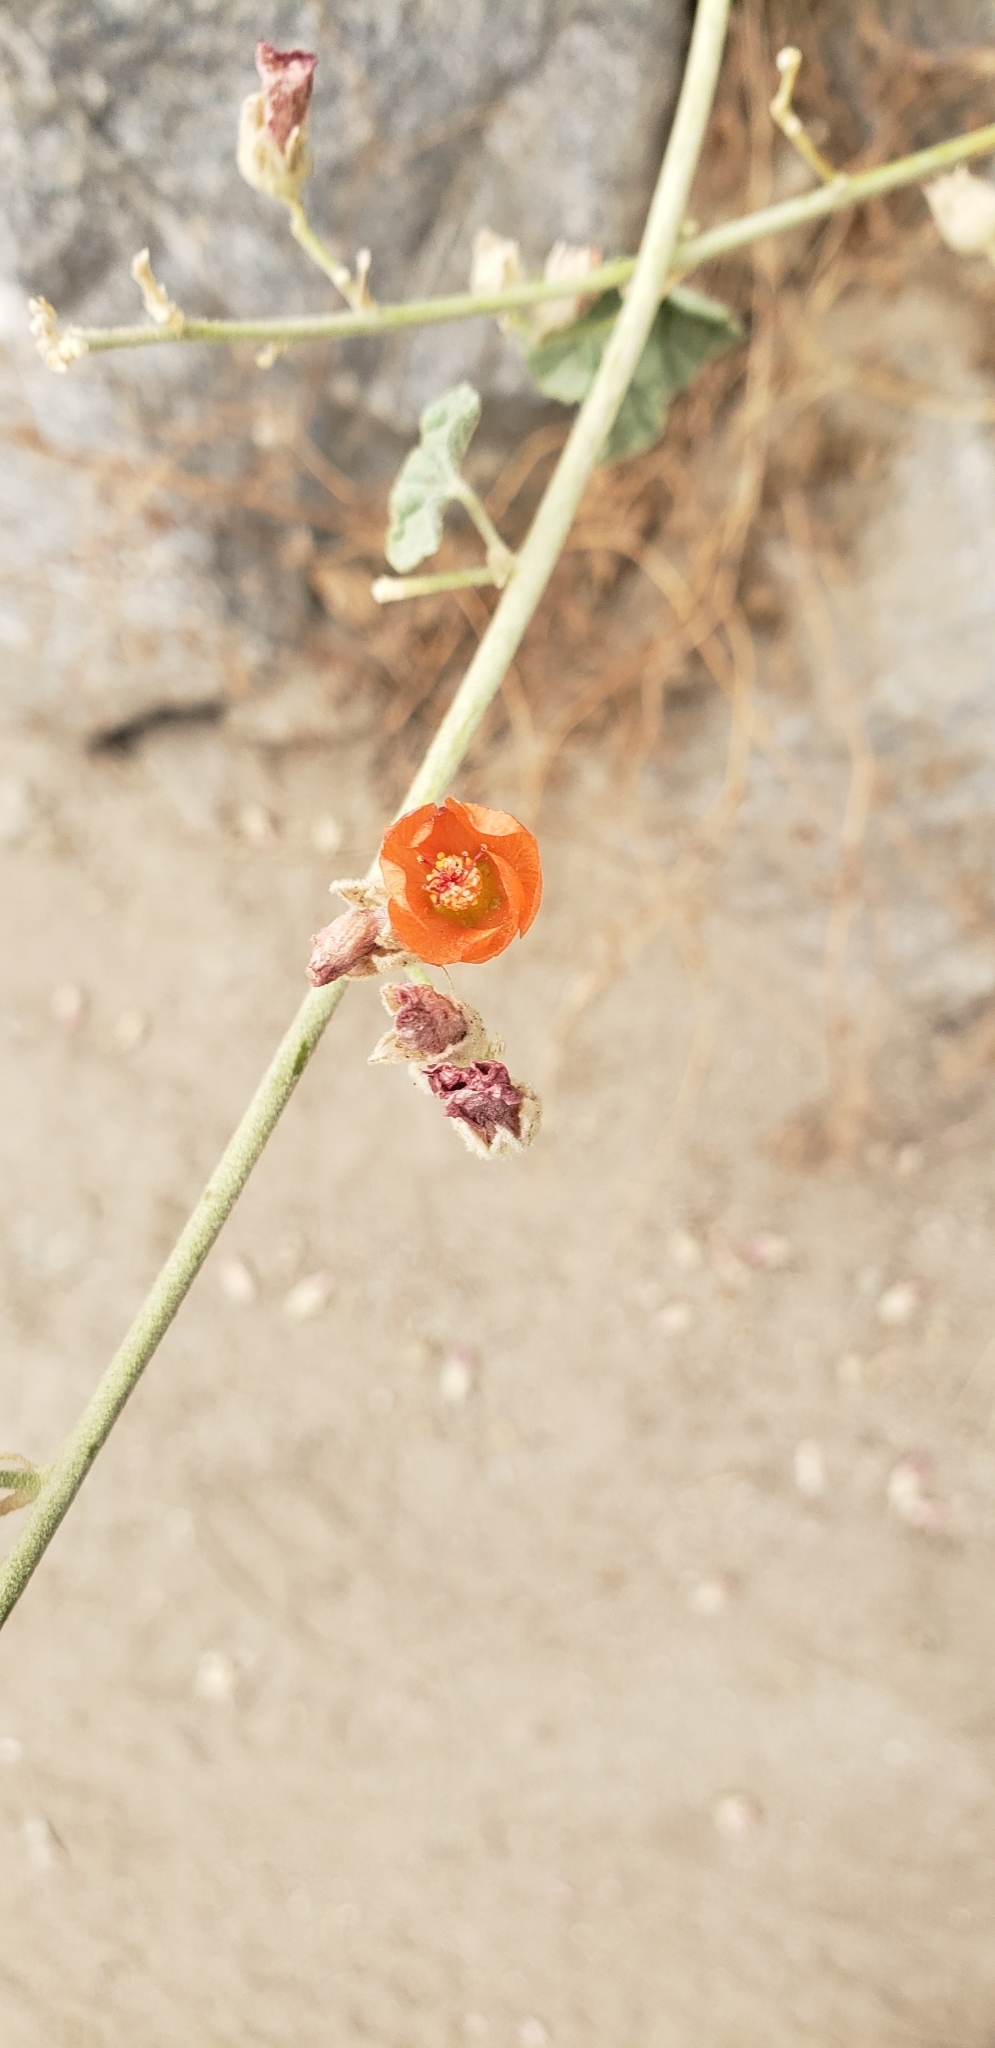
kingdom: Plantae
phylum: Tracheophyta
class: Magnoliopsida
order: Malvales
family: Malvaceae
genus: Sphaeralcea
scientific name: Sphaeralcea ambigua
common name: Apricot globe-mallow
